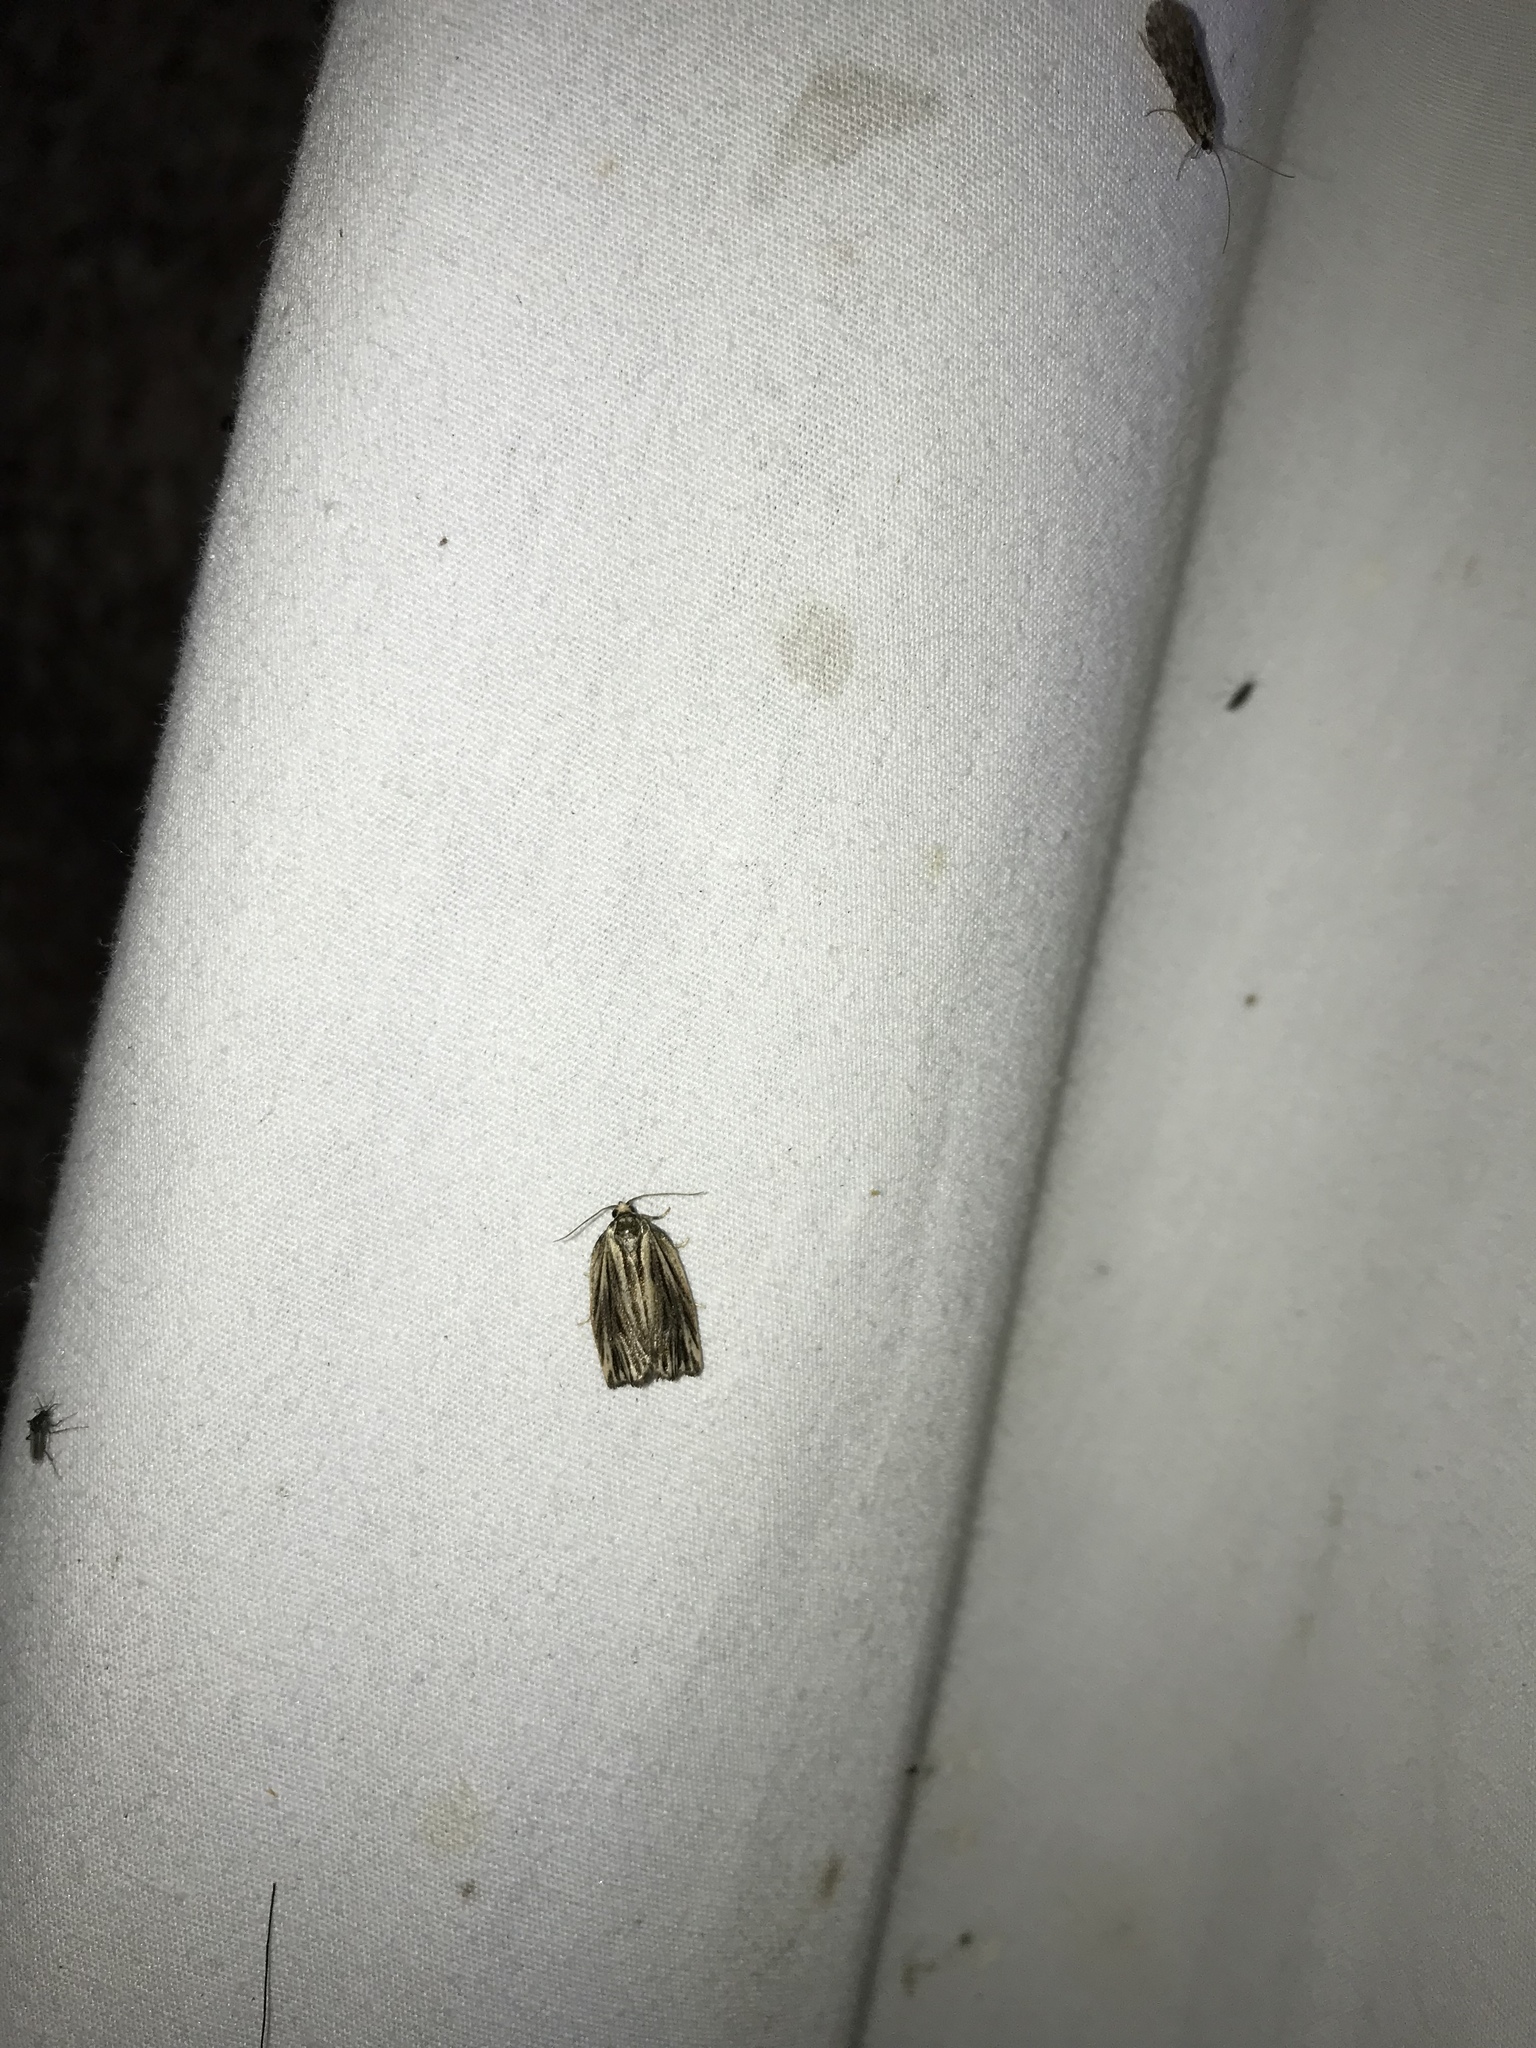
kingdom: Animalia
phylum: Arthropoda
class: Insecta
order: Lepidoptera
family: Tortricidae
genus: Archips
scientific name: Archips strianus
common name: Striated tortrix moth
